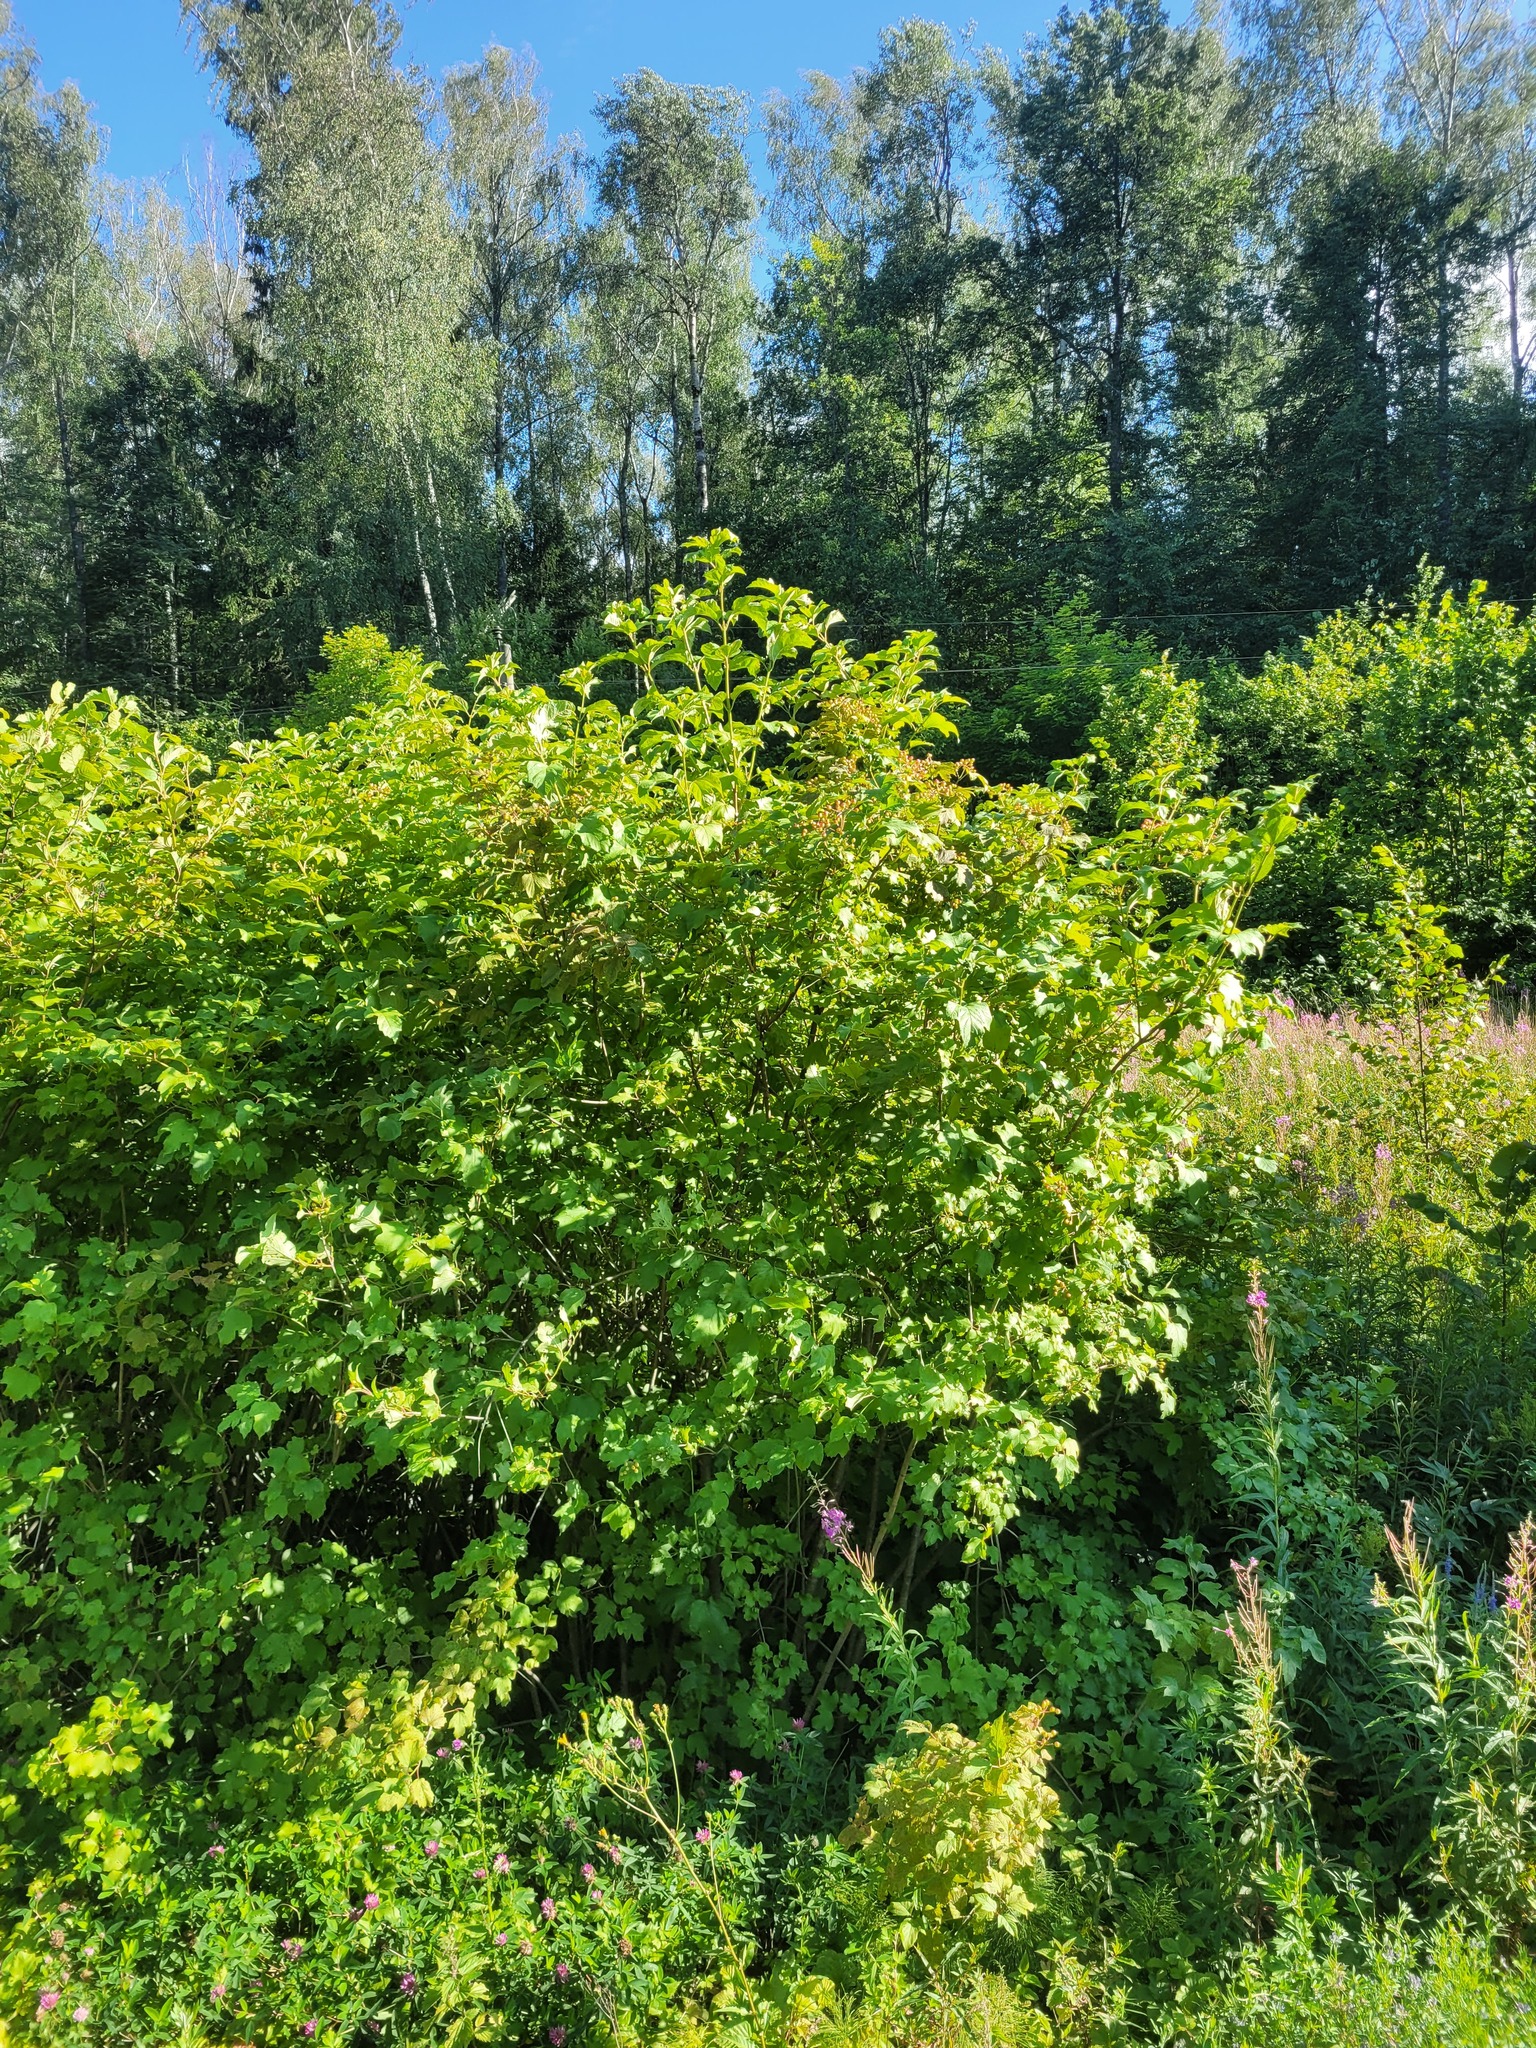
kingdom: Plantae
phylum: Tracheophyta
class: Magnoliopsida
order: Dipsacales
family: Viburnaceae
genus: Viburnum
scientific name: Viburnum opulus
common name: Guelder-rose
